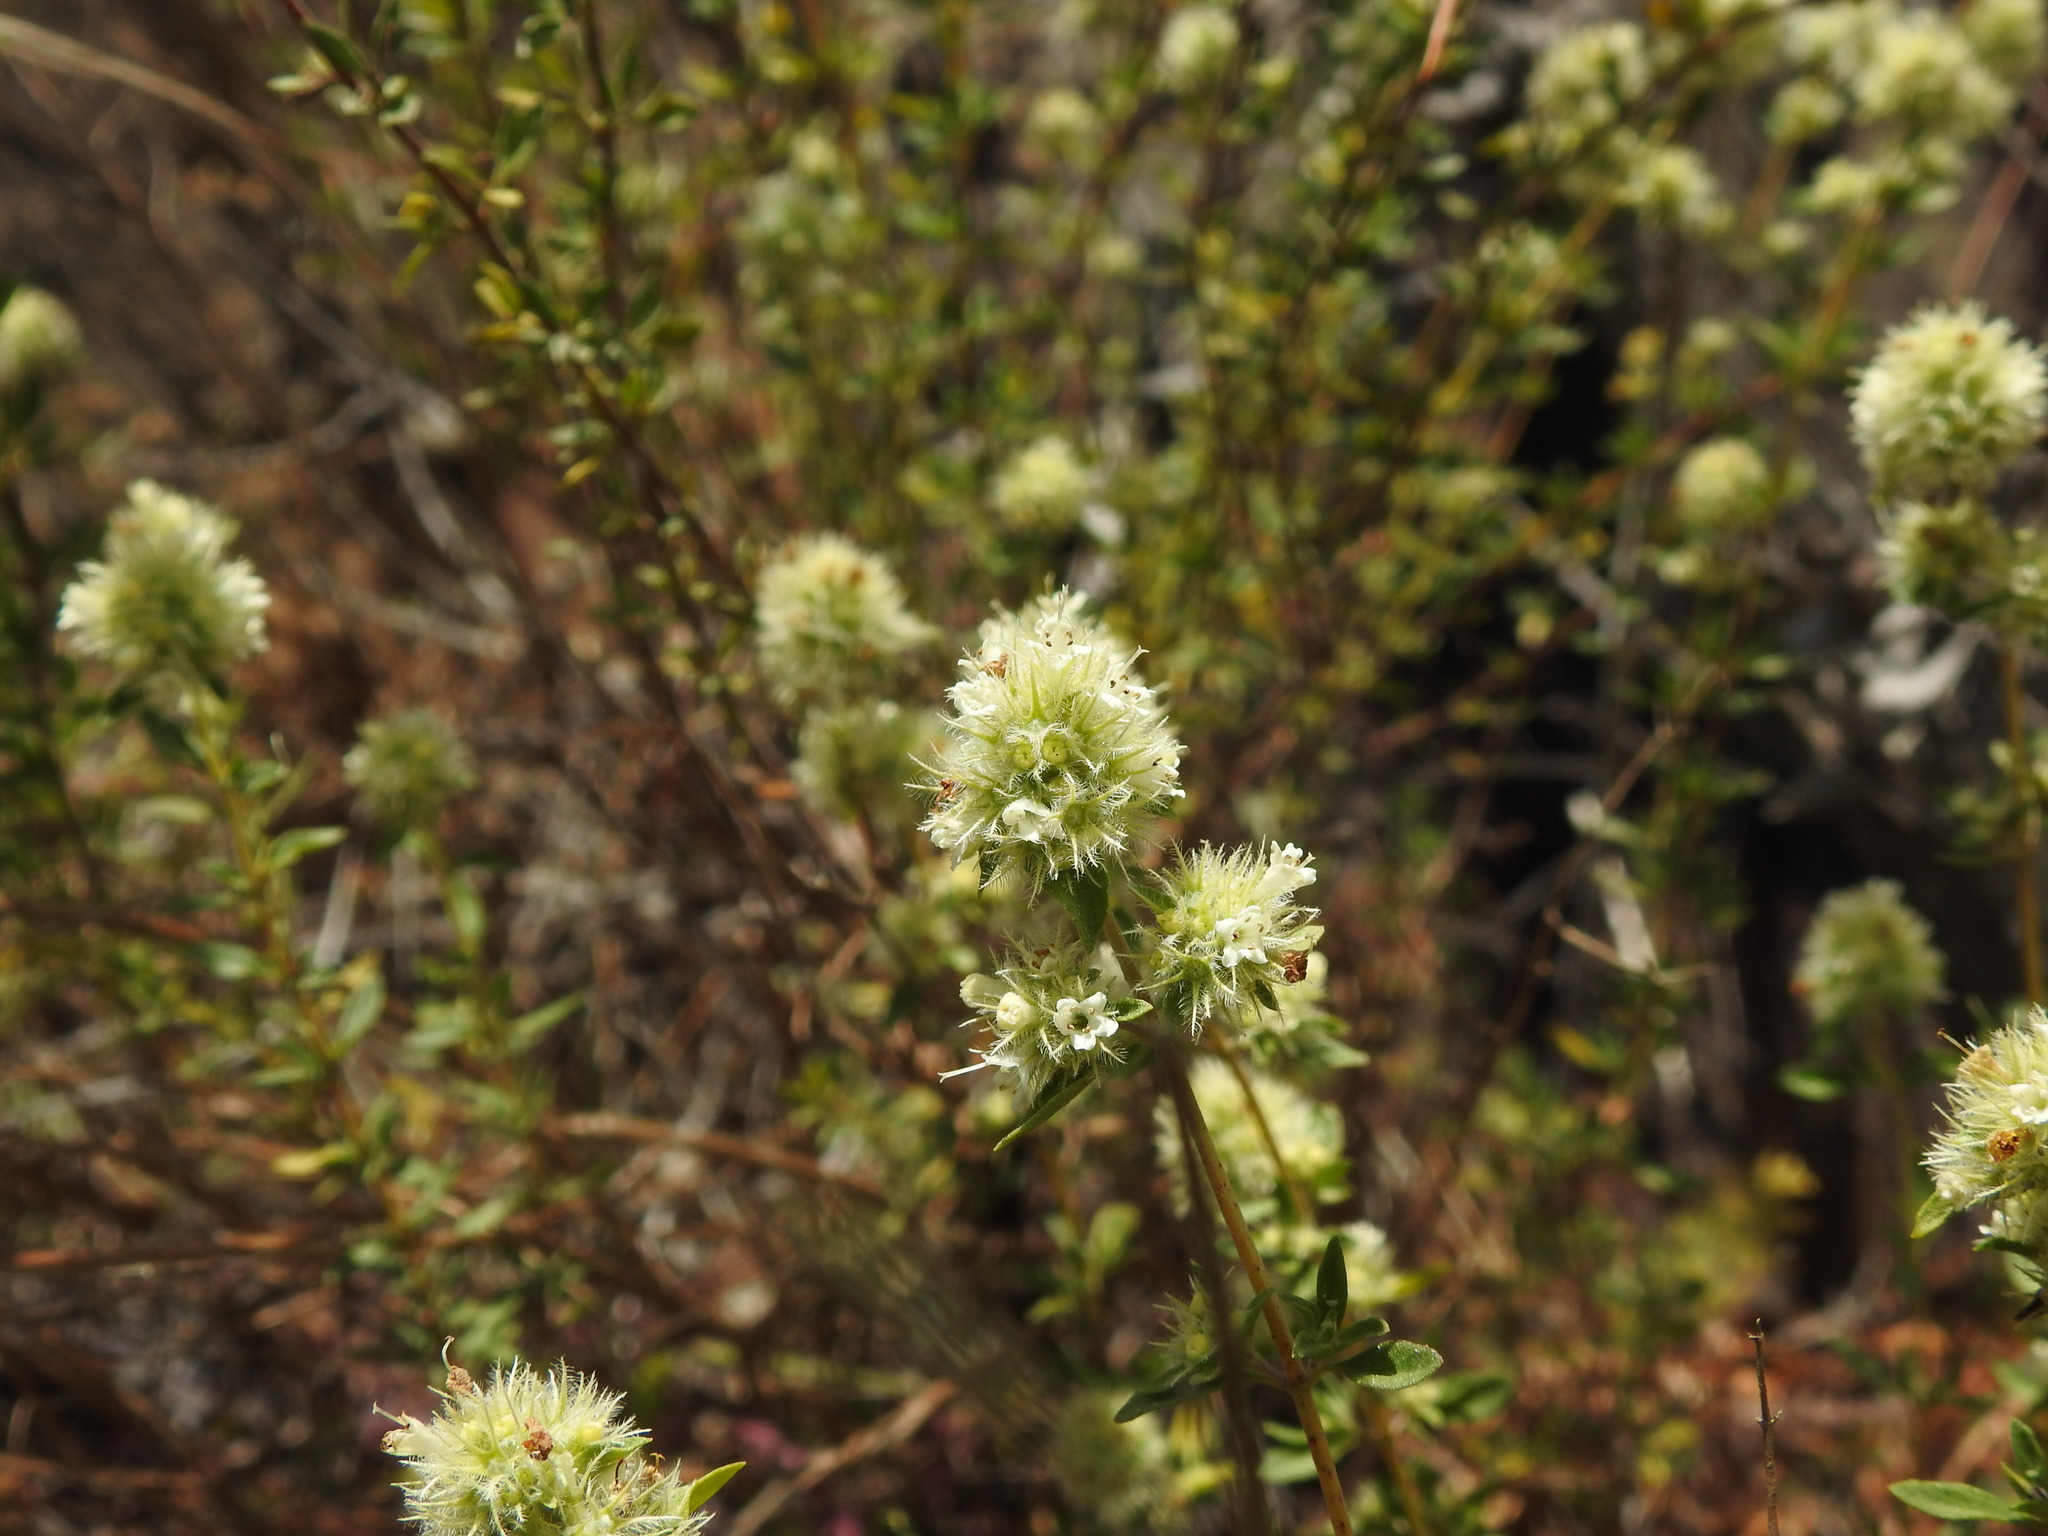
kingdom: Plantae
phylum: Tracheophyta
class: Magnoliopsida
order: Lamiales
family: Lamiaceae
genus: Thymus
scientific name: Thymus mastichina
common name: Mastic thyme
